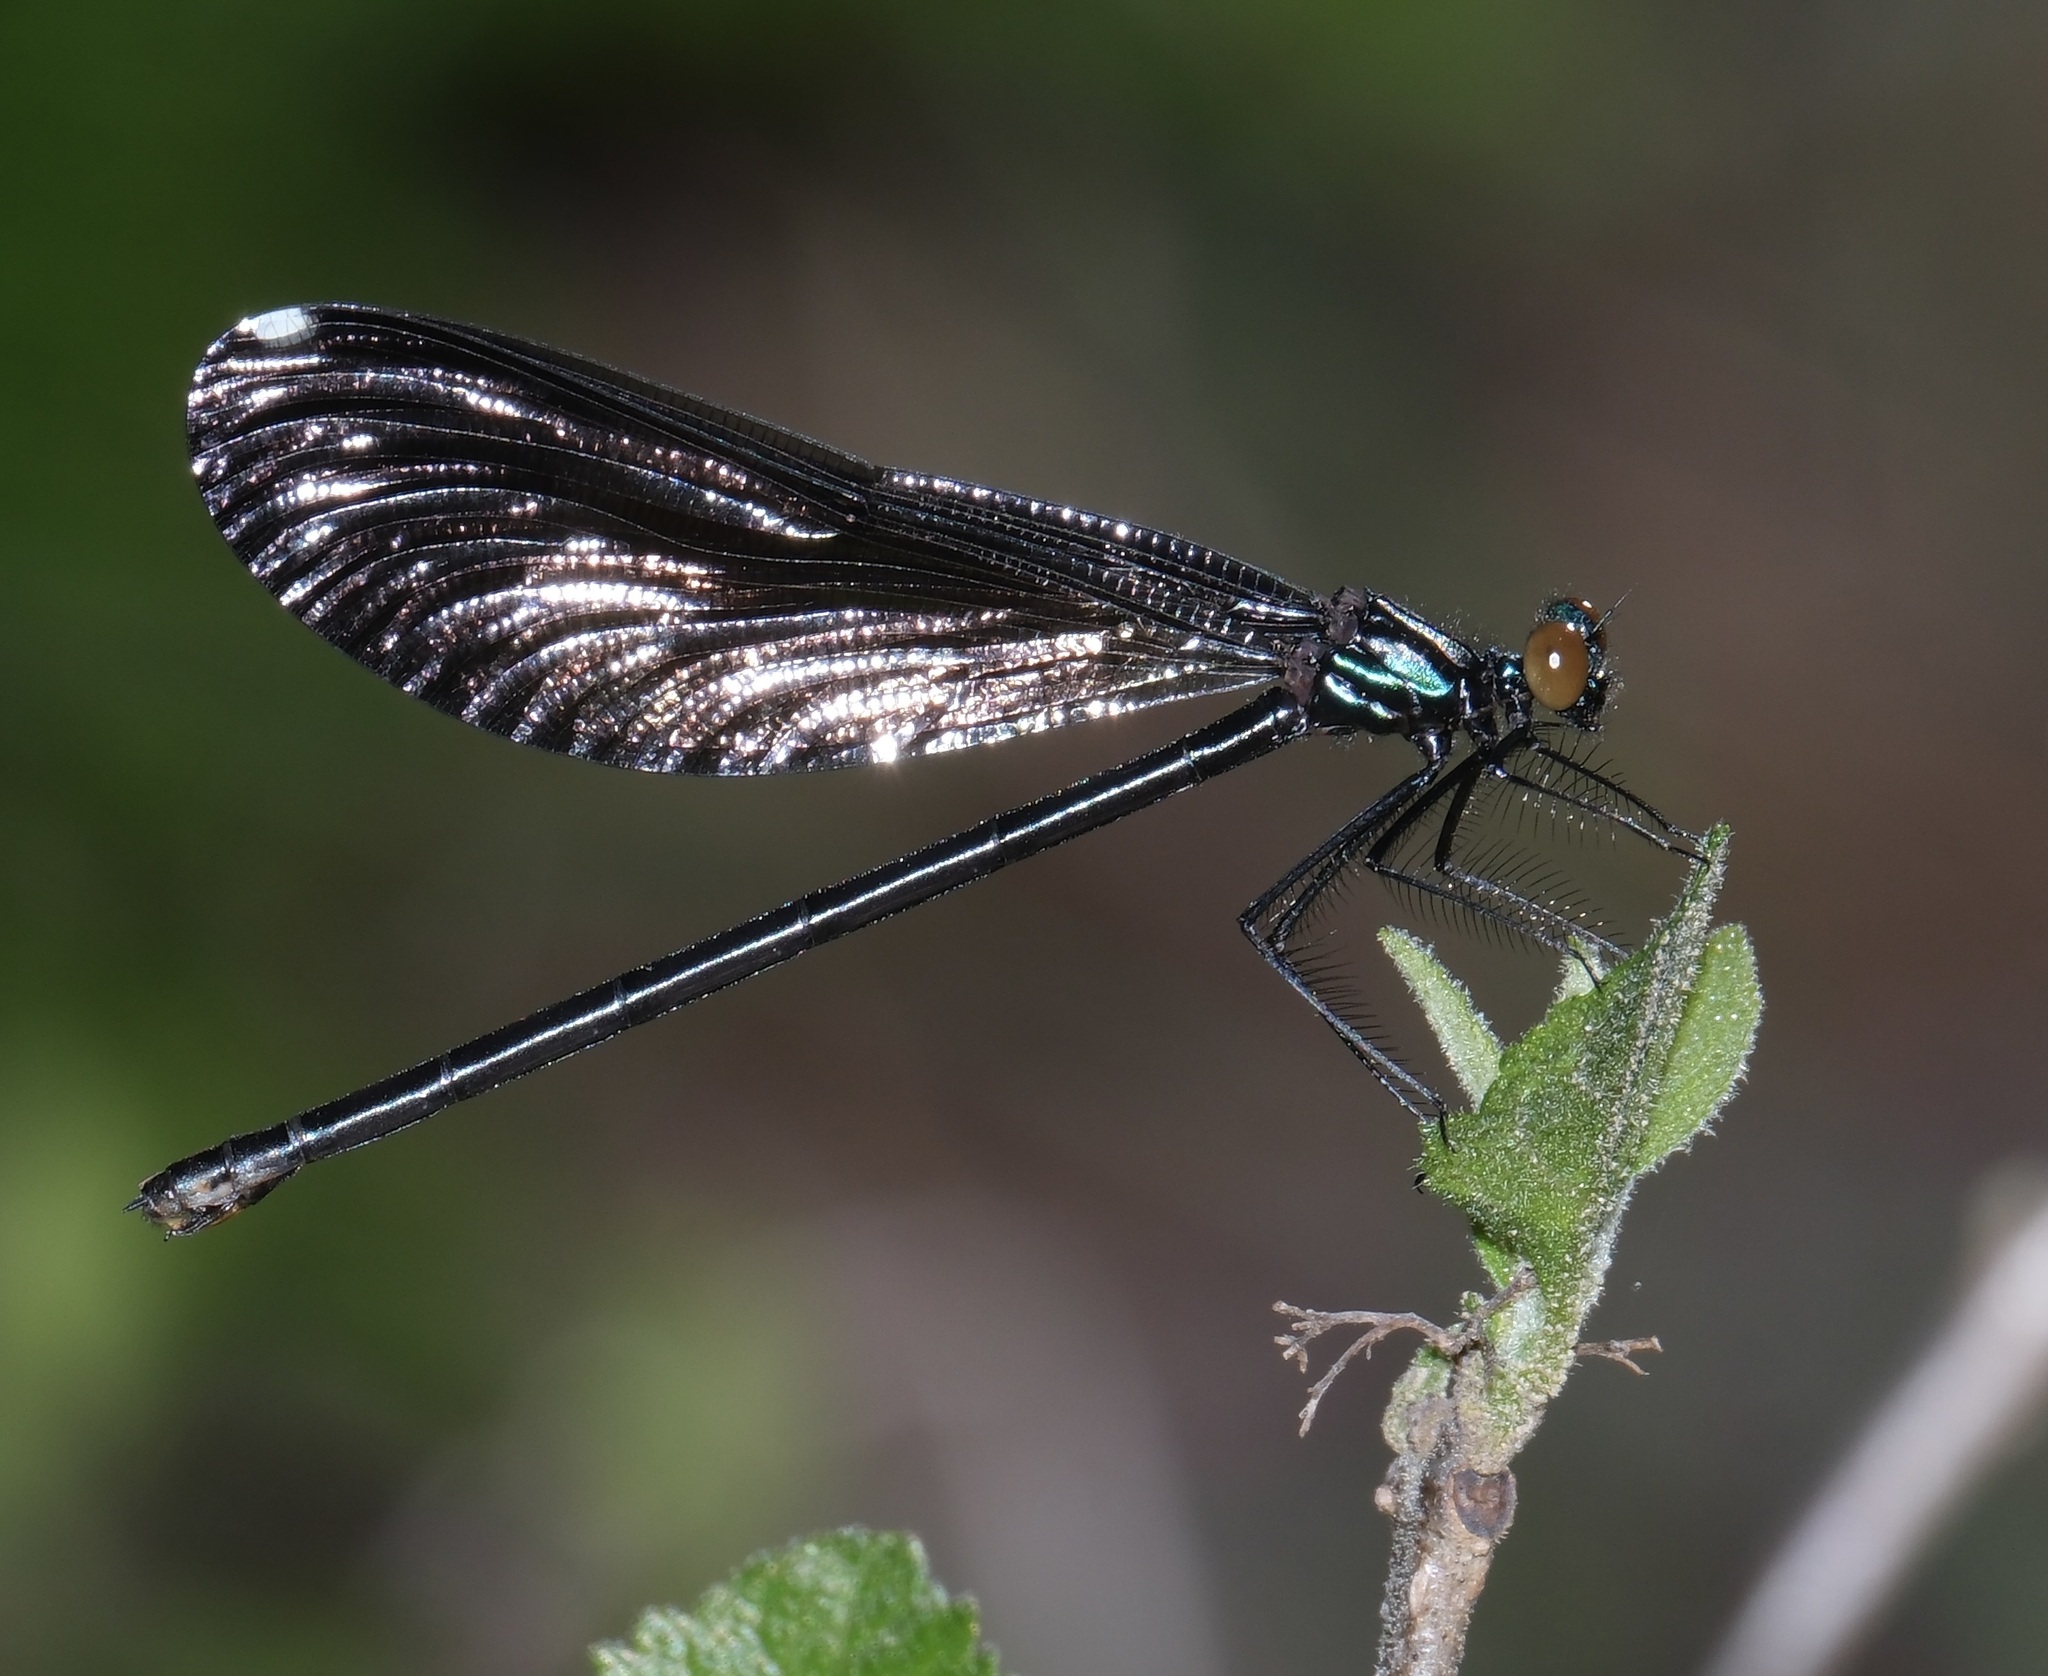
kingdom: Animalia
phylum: Arthropoda
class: Insecta
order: Odonata
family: Calopterygidae
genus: Calopteryx
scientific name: Calopteryx maculata
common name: Ebony jewelwing
